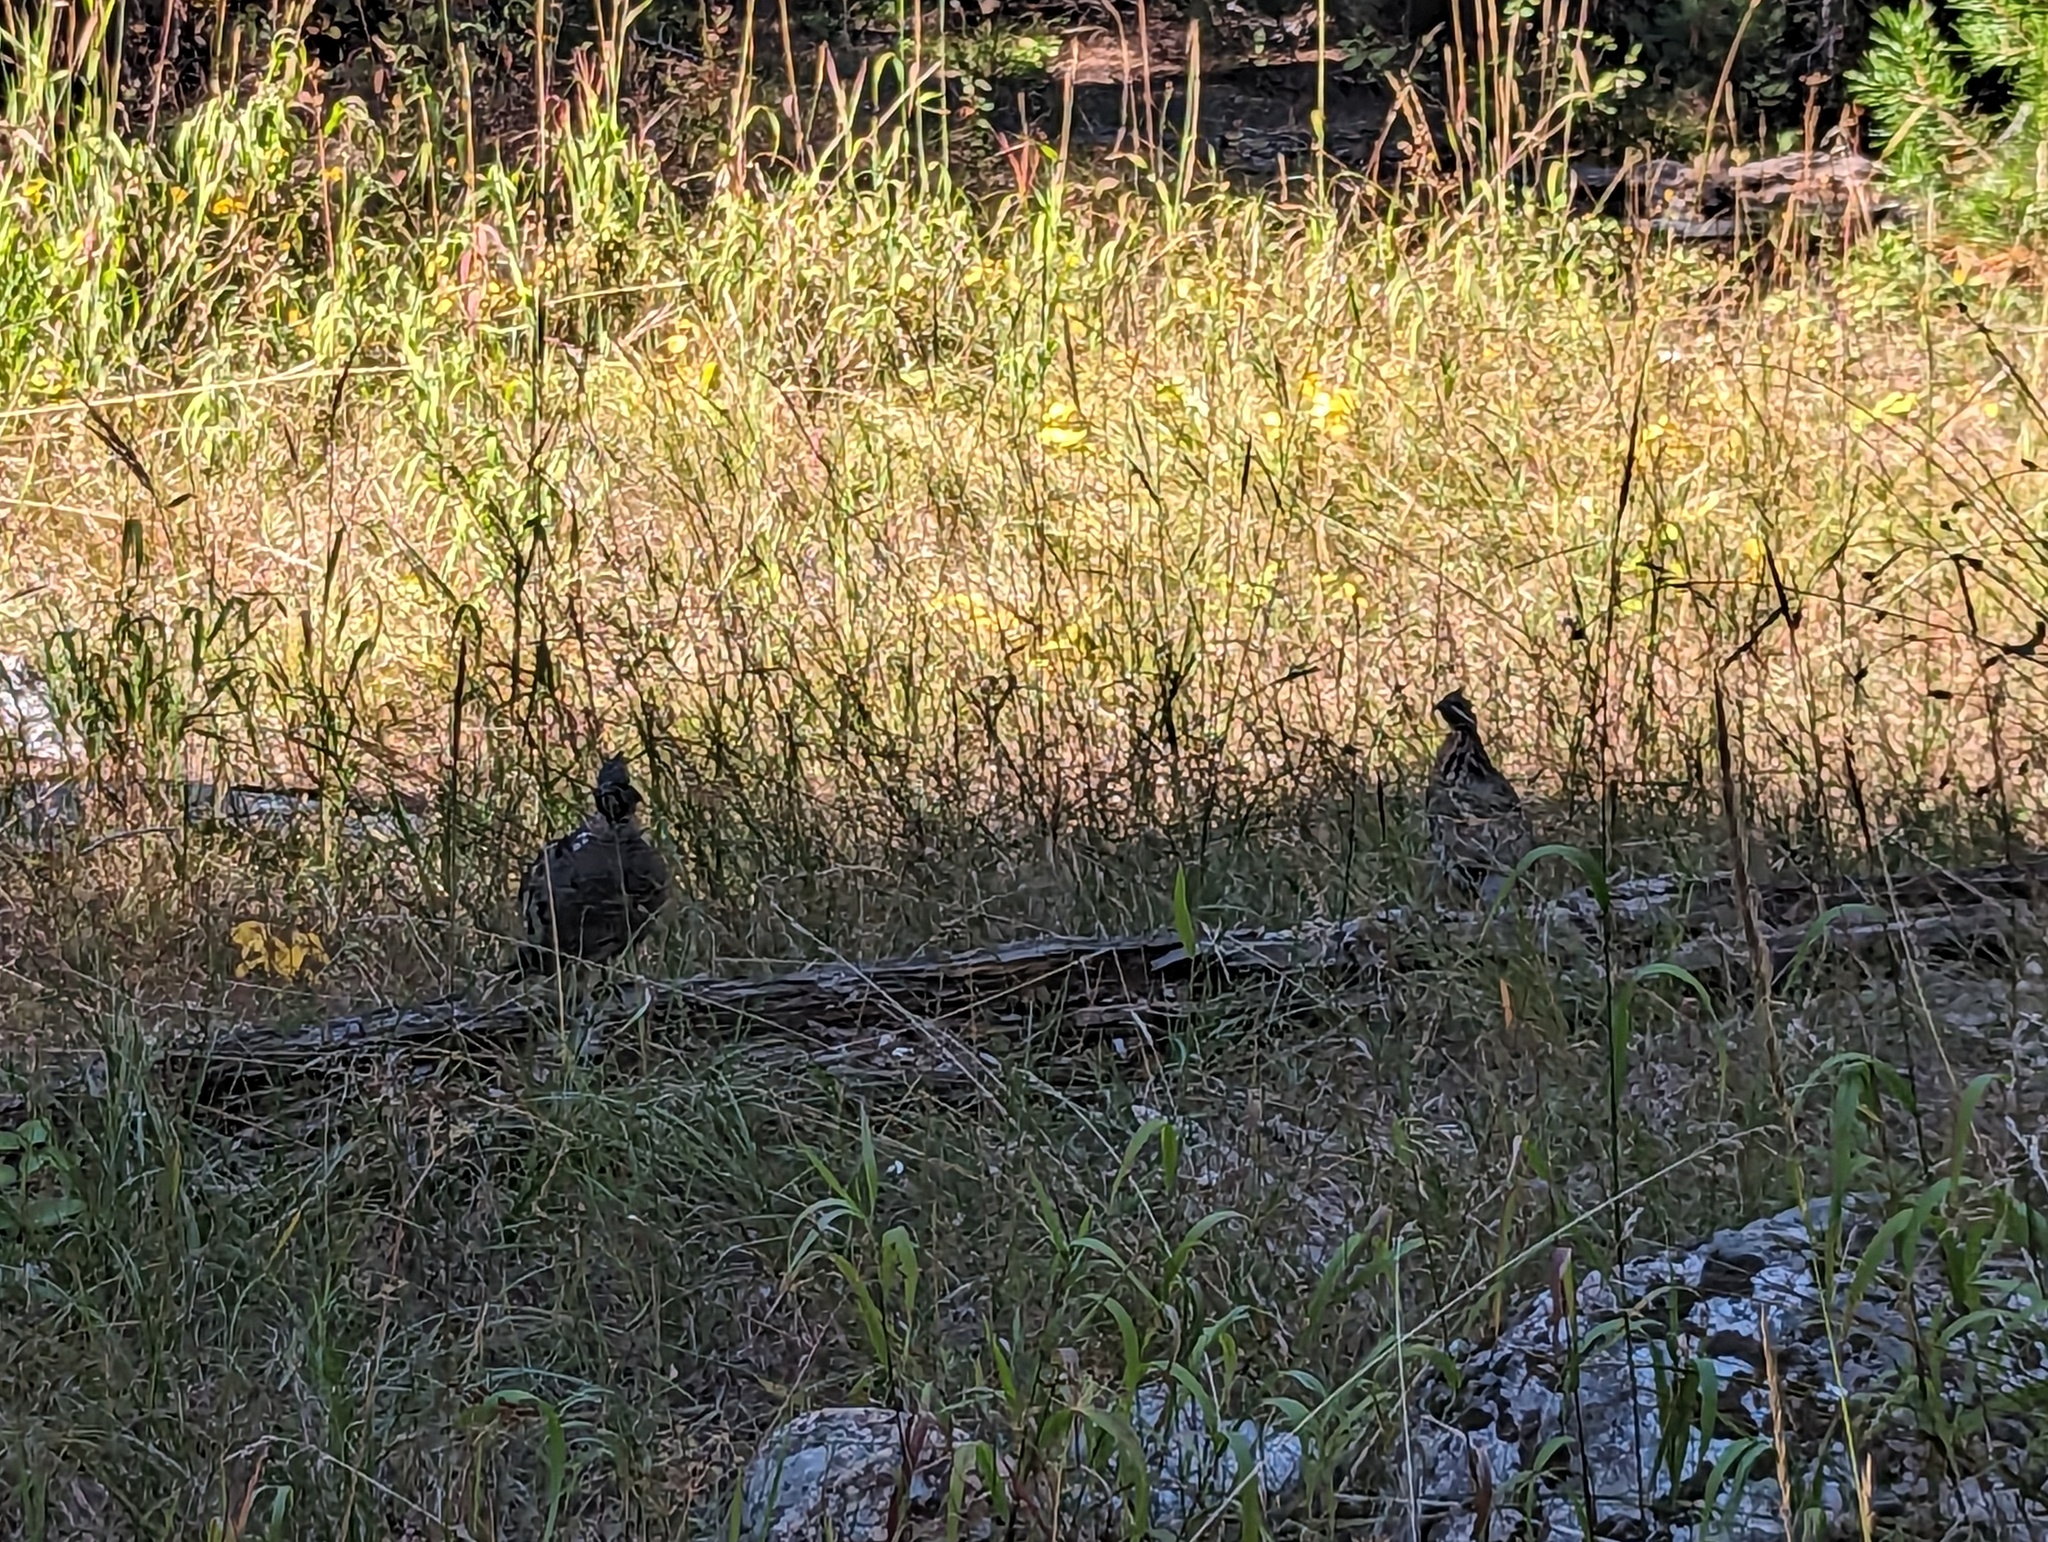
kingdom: Animalia
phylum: Chordata
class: Aves
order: Galliformes
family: Phasianidae
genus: Bonasa
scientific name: Bonasa umbellus
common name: Ruffed grouse
